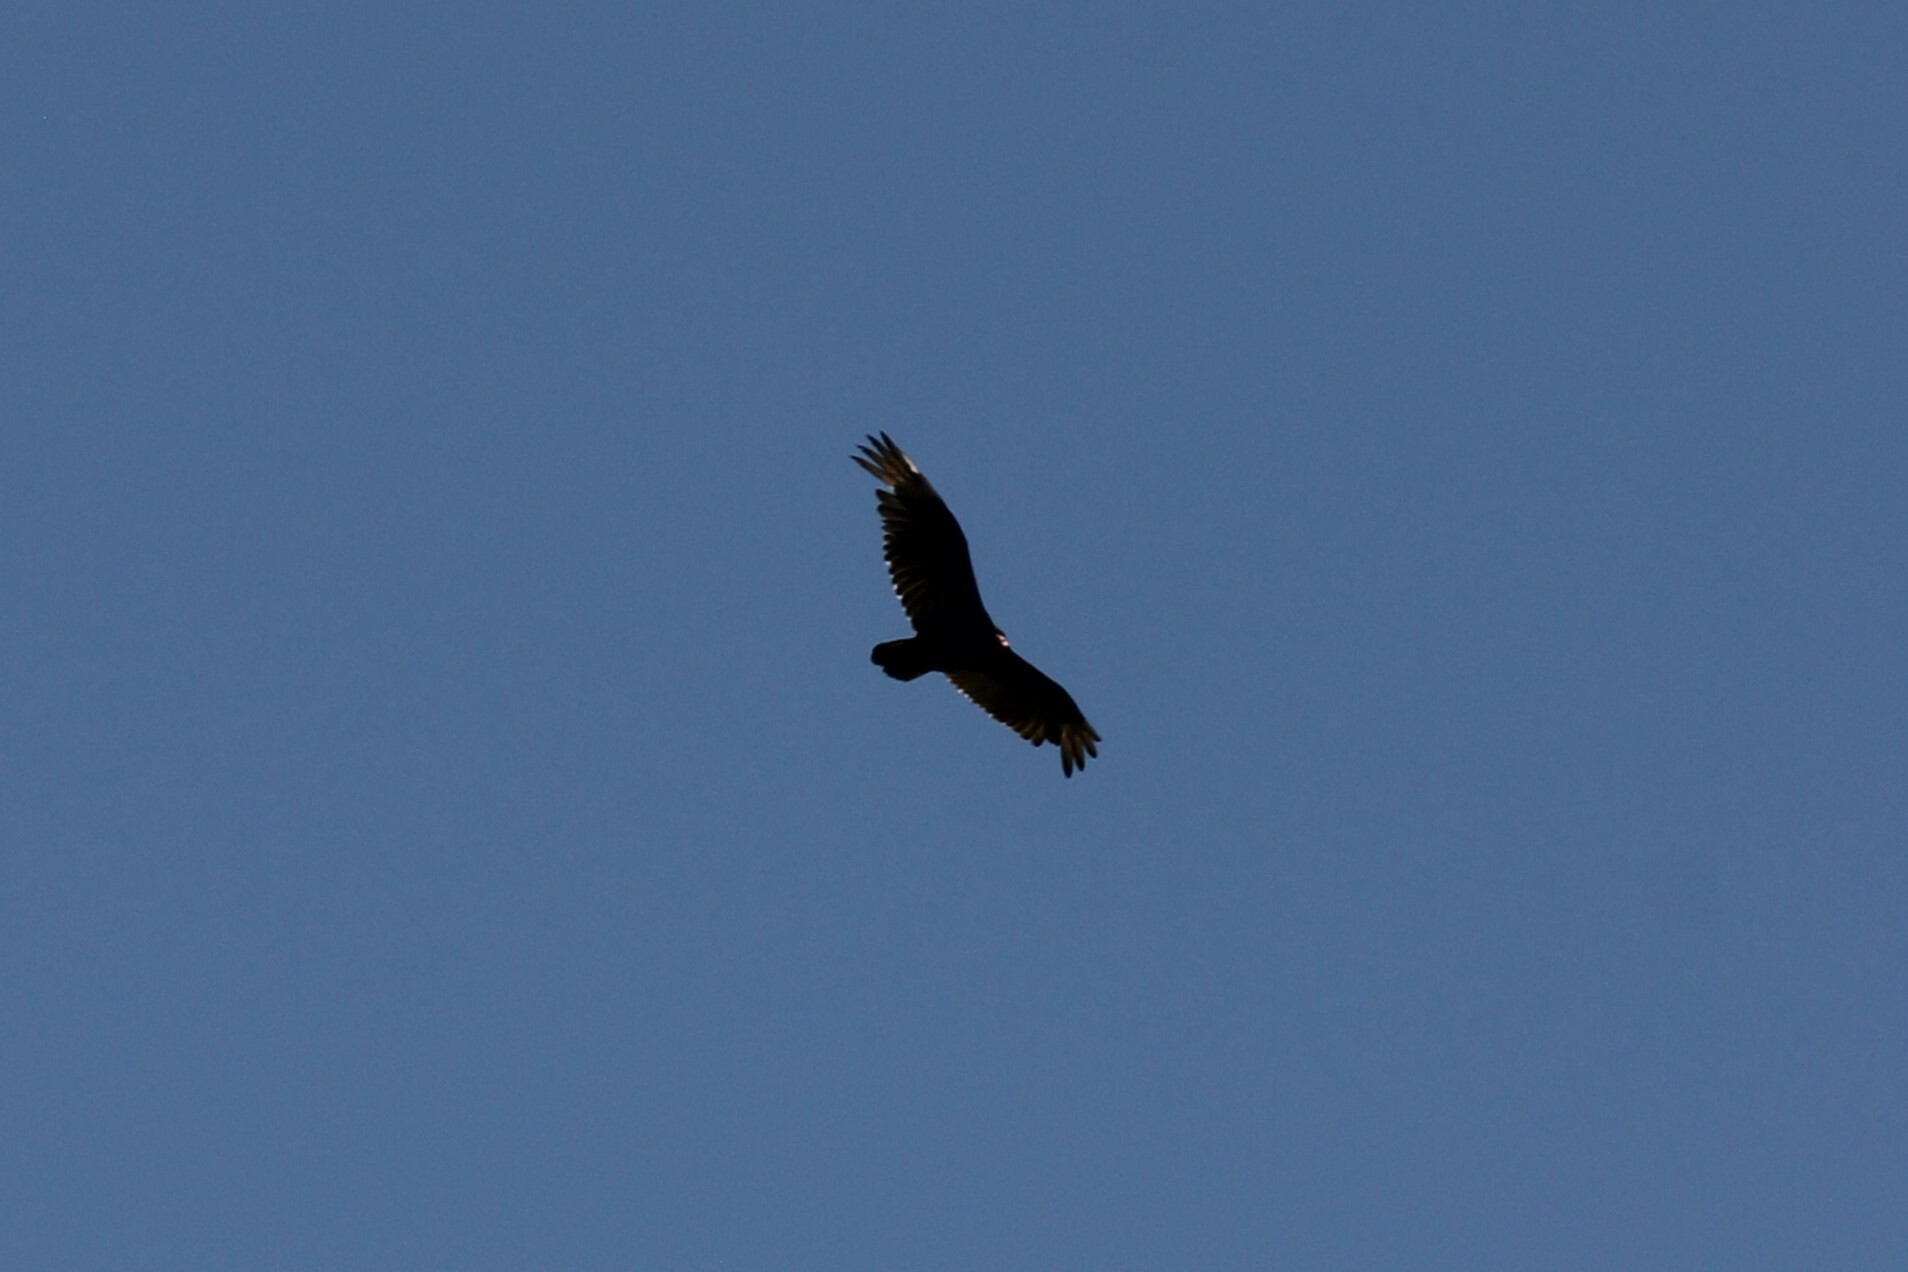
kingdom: Animalia
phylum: Chordata
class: Aves
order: Accipitriformes
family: Cathartidae
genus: Cathartes
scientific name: Cathartes aura
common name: Turkey vulture
